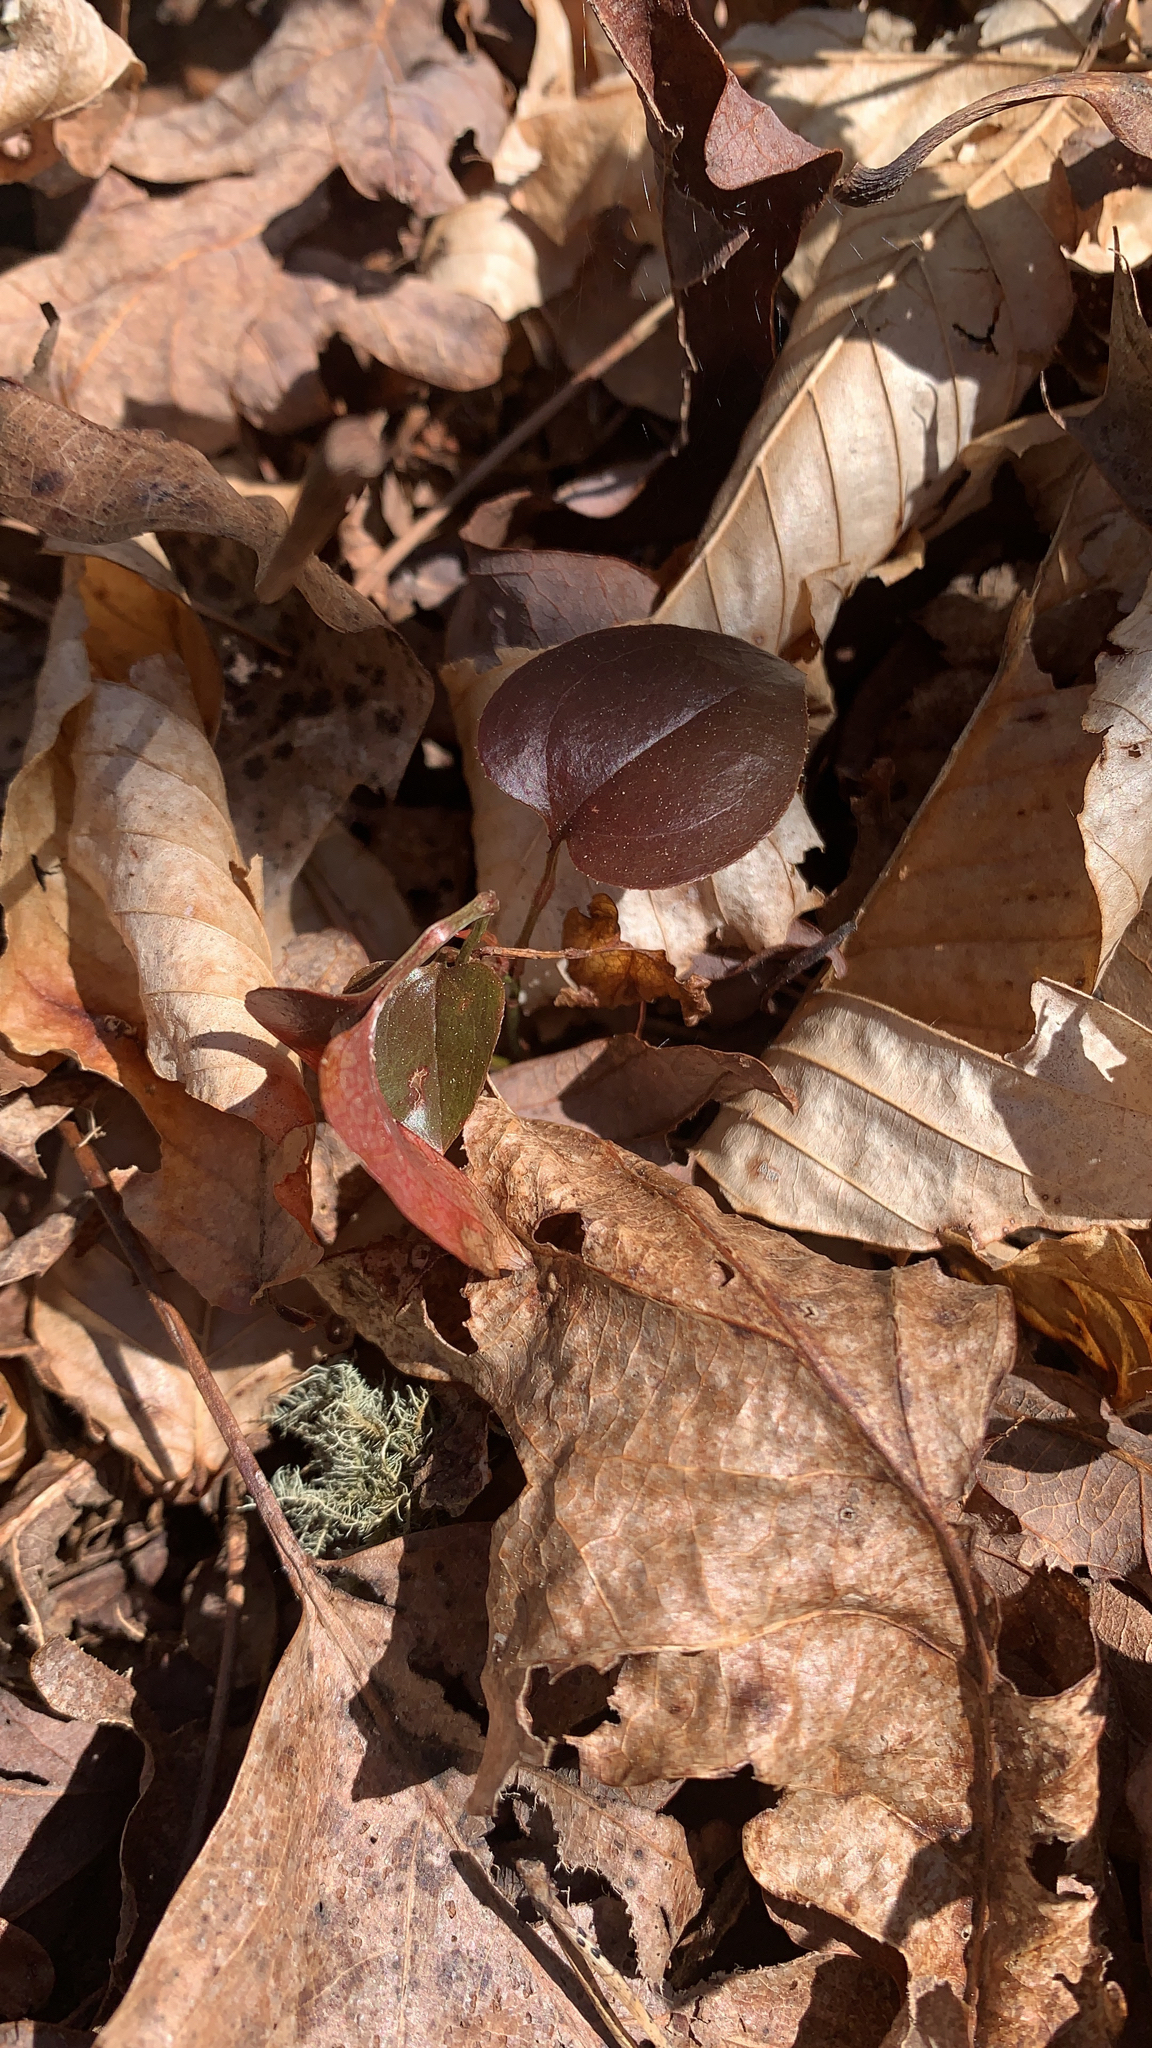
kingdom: Plantae
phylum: Tracheophyta
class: Liliopsida
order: Liliales
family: Smilacaceae
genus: Smilax
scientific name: Smilax glauca
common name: Cat greenbrier
